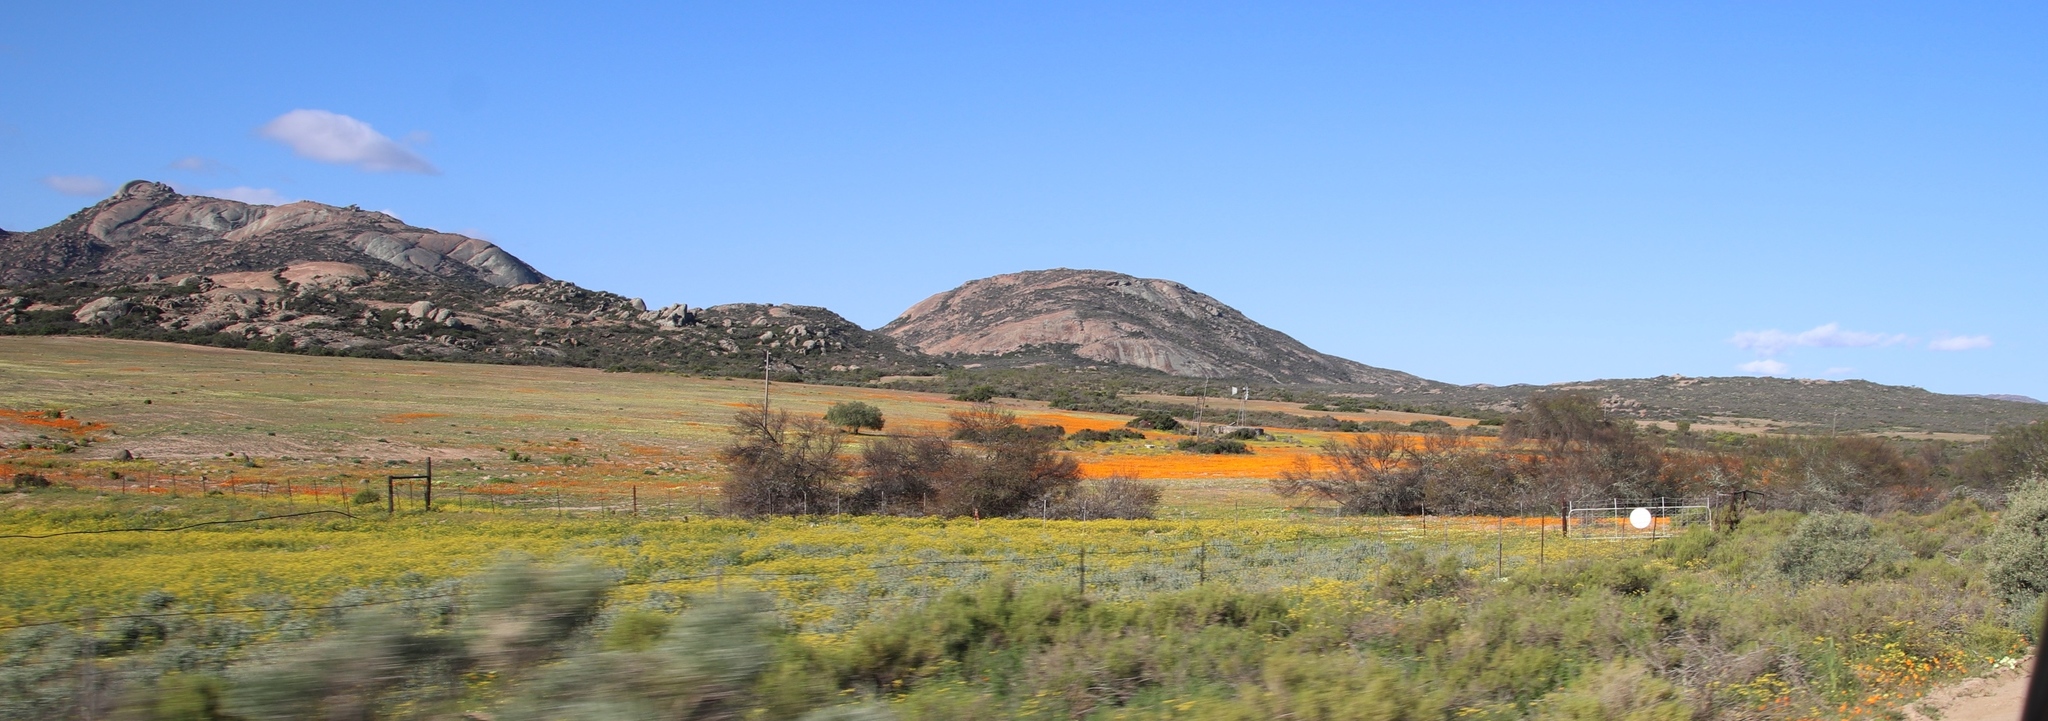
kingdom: Plantae
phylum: Tracheophyta
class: Magnoliopsida
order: Asterales
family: Asteraceae
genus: Dimorphotheca
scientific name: Dimorphotheca sinuata
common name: Glandular cape marigold
